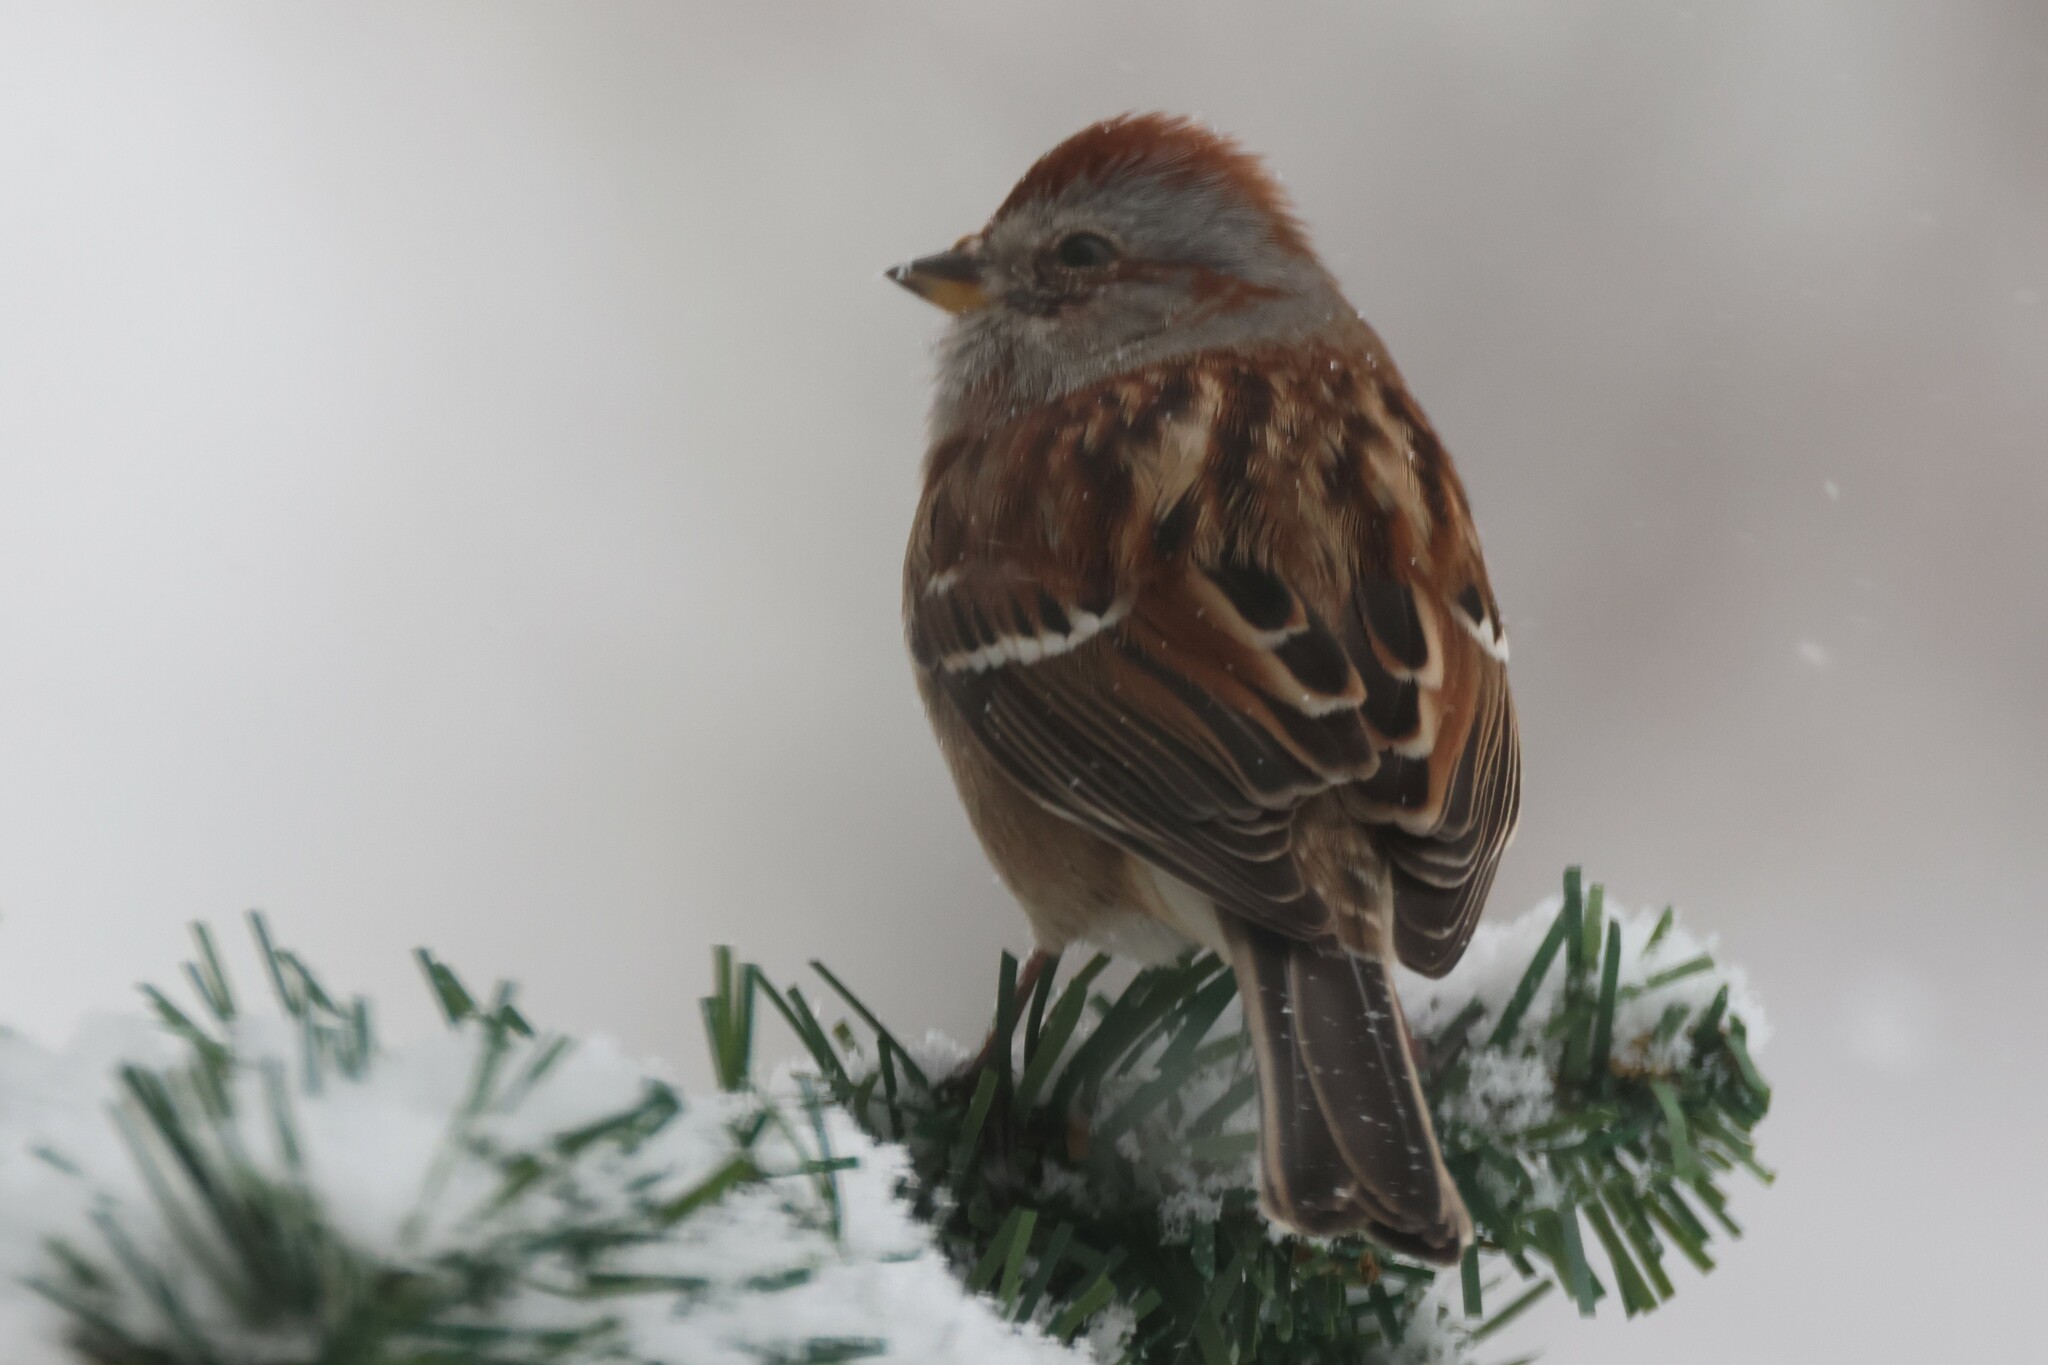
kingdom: Animalia
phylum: Chordata
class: Aves
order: Passeriformes
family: Passerellidae
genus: Spizelloides
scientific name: Spizelloides arborea
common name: American tree sparrow
